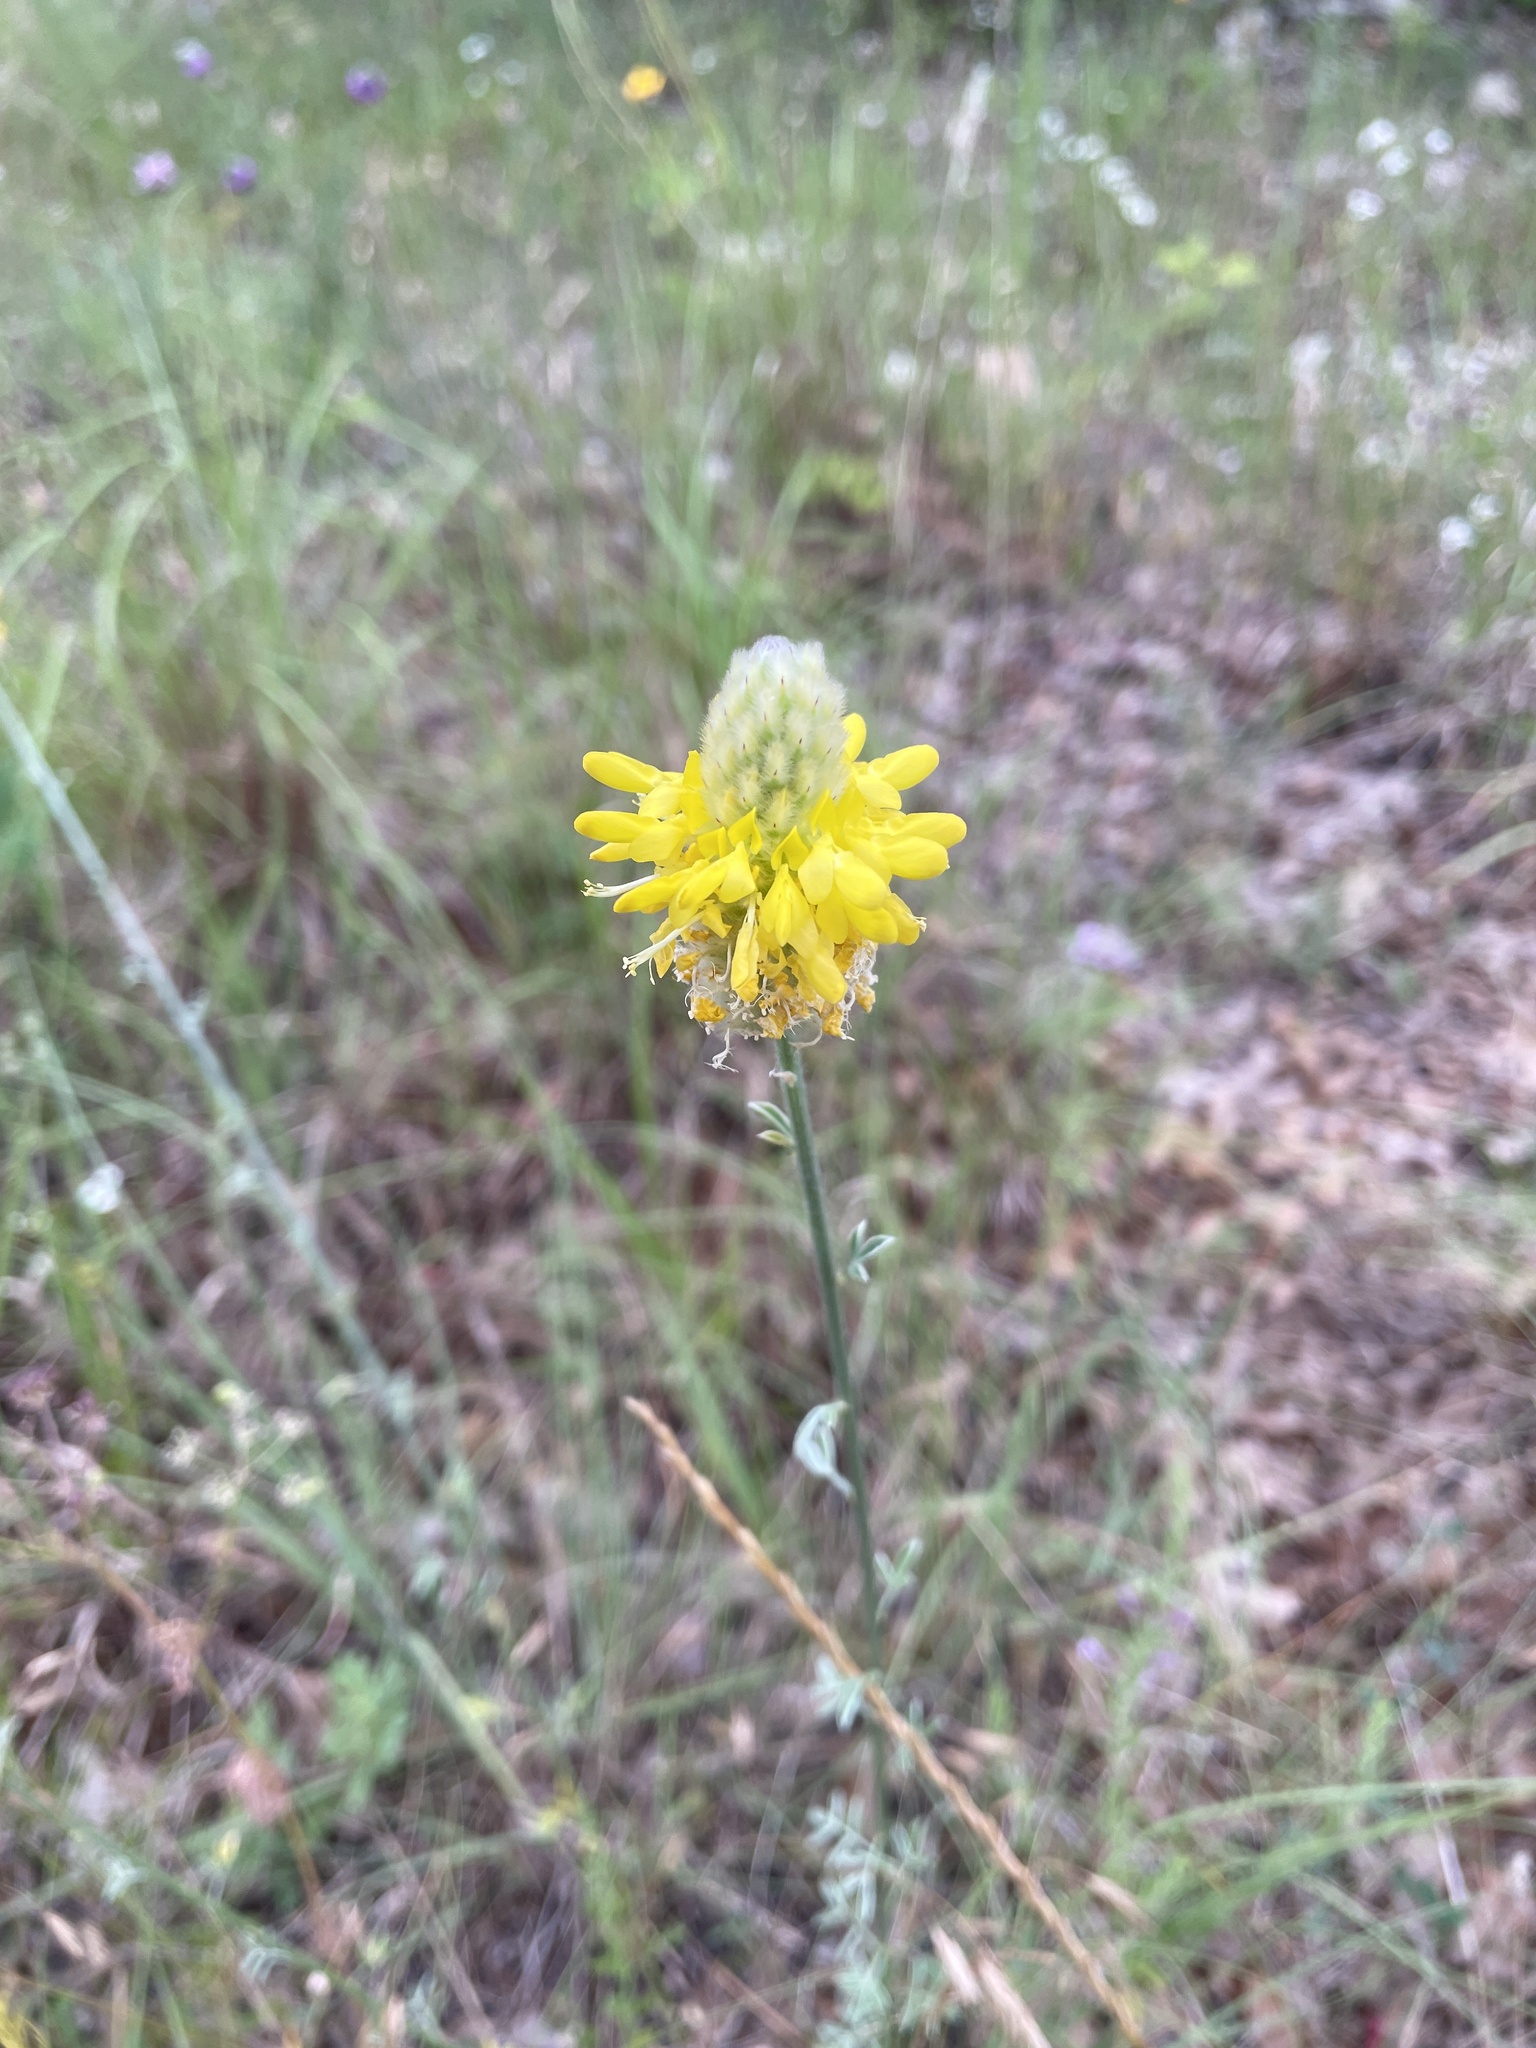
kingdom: Plantae
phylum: Tracheophyta
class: Magnoliopsida
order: Fabales
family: Fabaceae
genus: Dalea
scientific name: Dalea aurea
